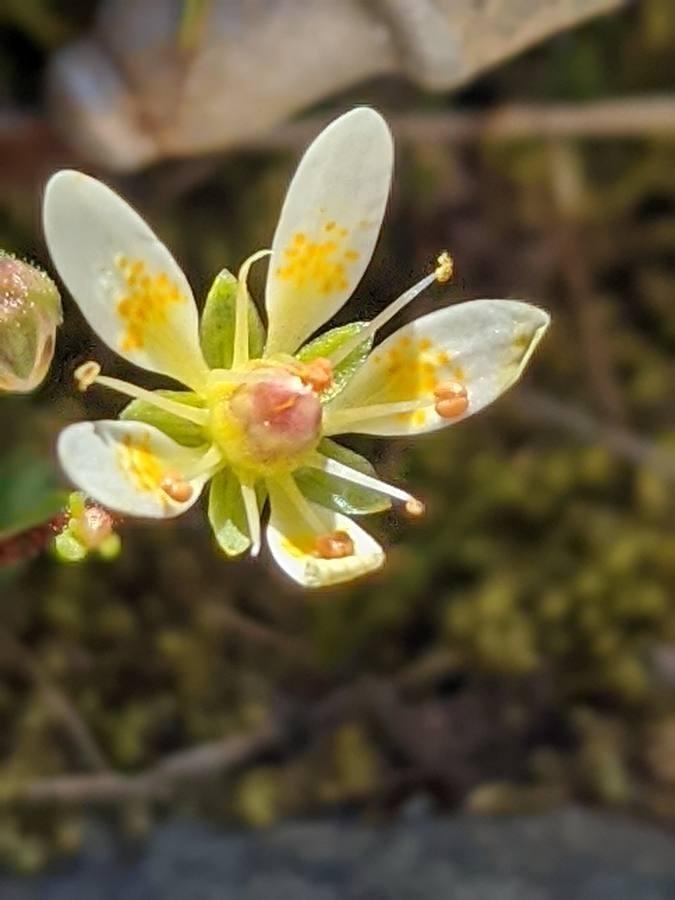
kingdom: Plantae
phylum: Tracheophyta
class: Magnoliopsida
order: Saxifragales
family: Saxifragaceae
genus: Saxifraga
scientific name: Saxifraga bryoides
